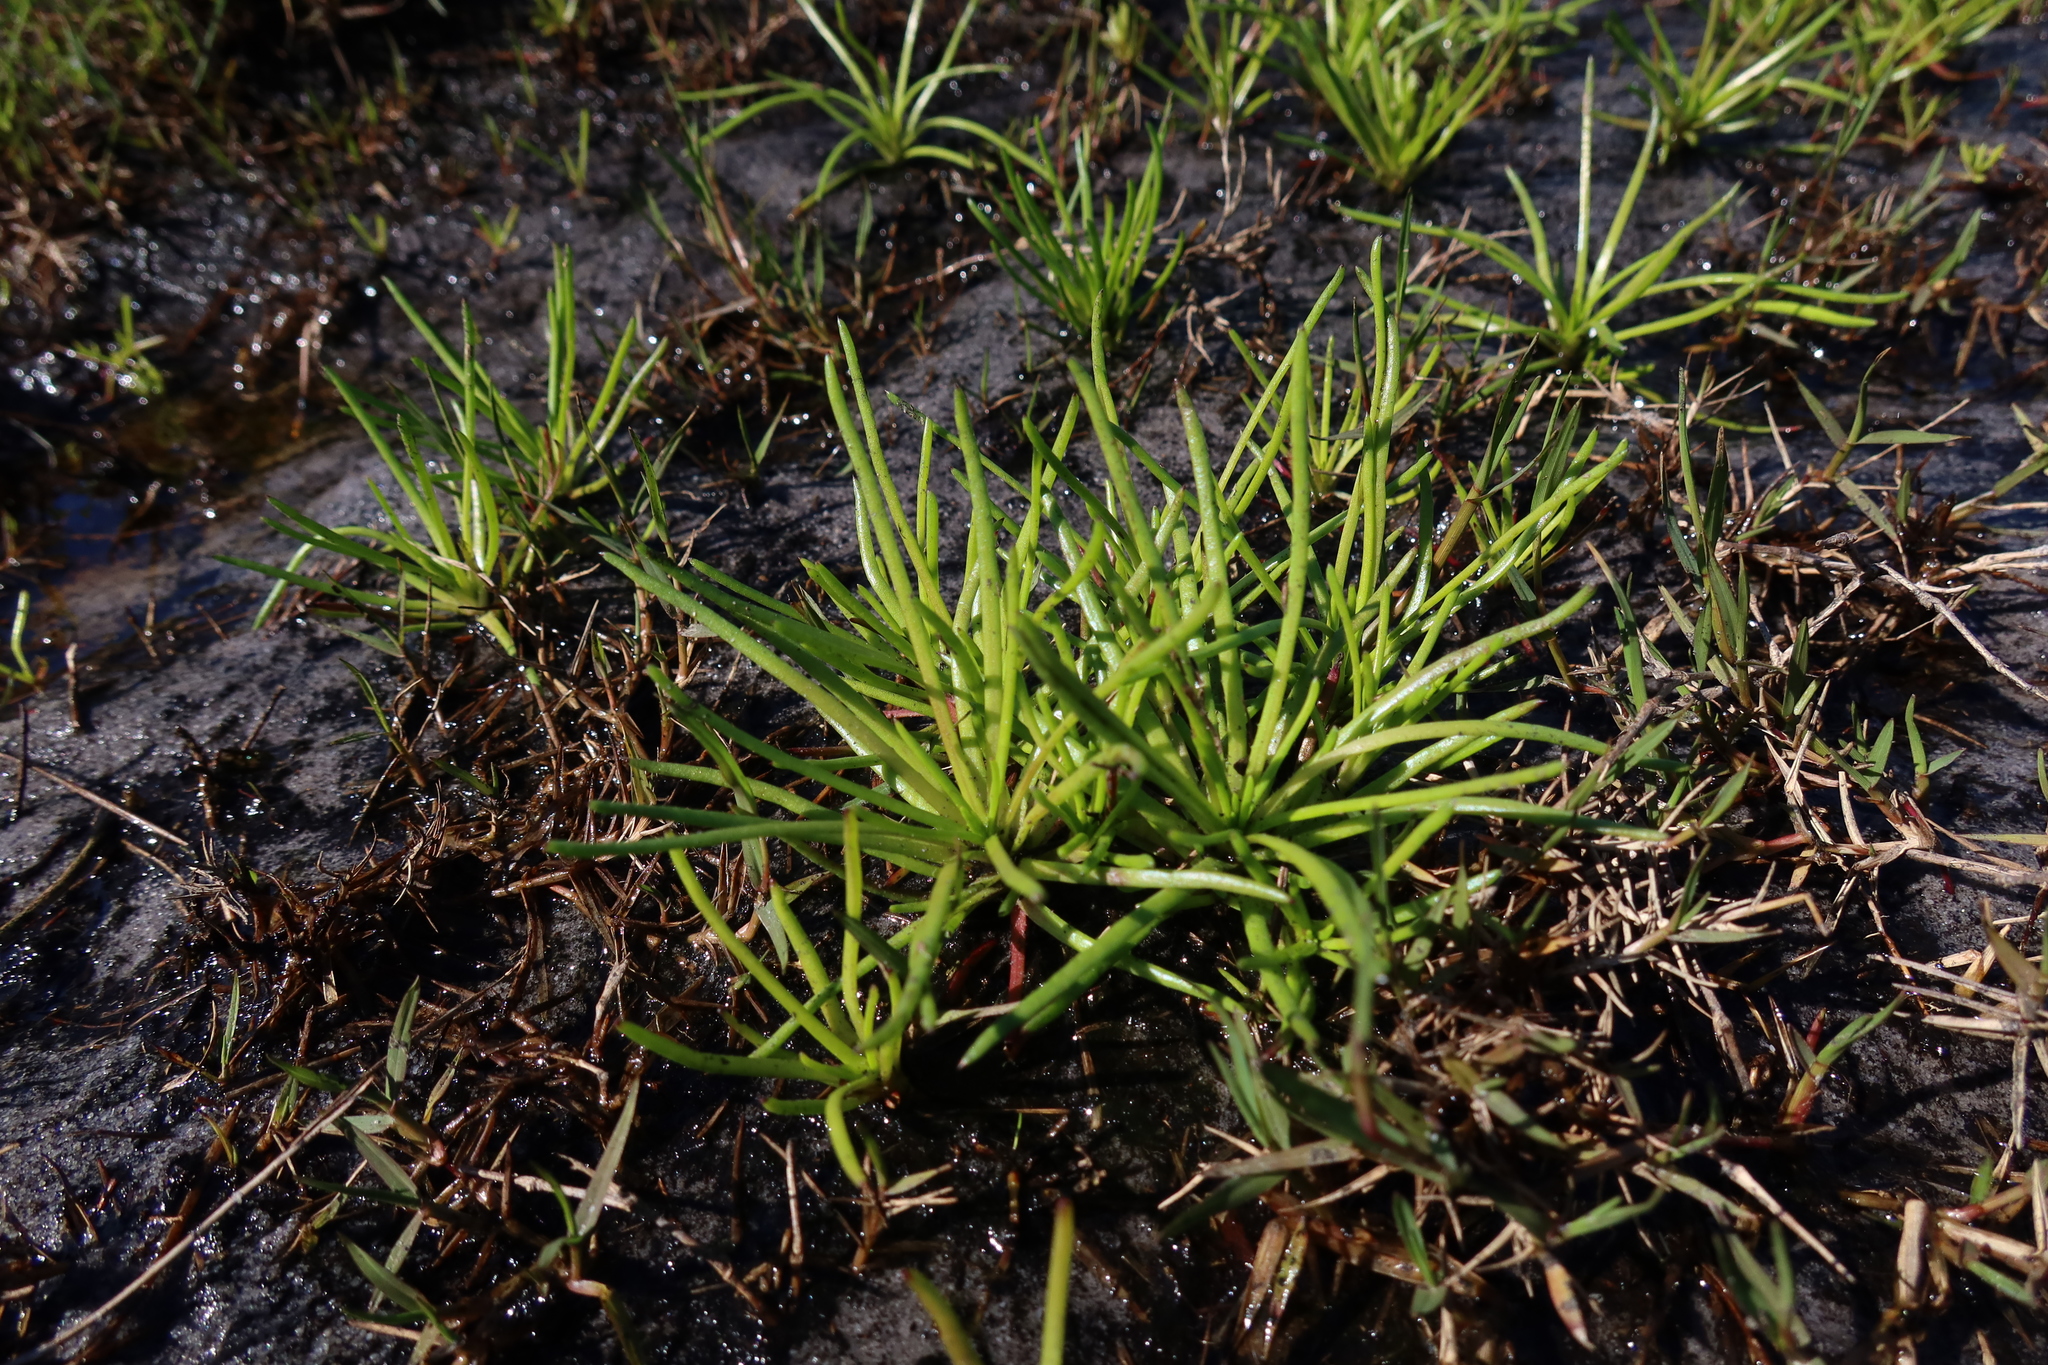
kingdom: Plantae
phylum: Tracheophyta
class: Magnoliopsida
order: Asterales
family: Asteraceae
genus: Ursinia
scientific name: Ursinia tenuifolia
